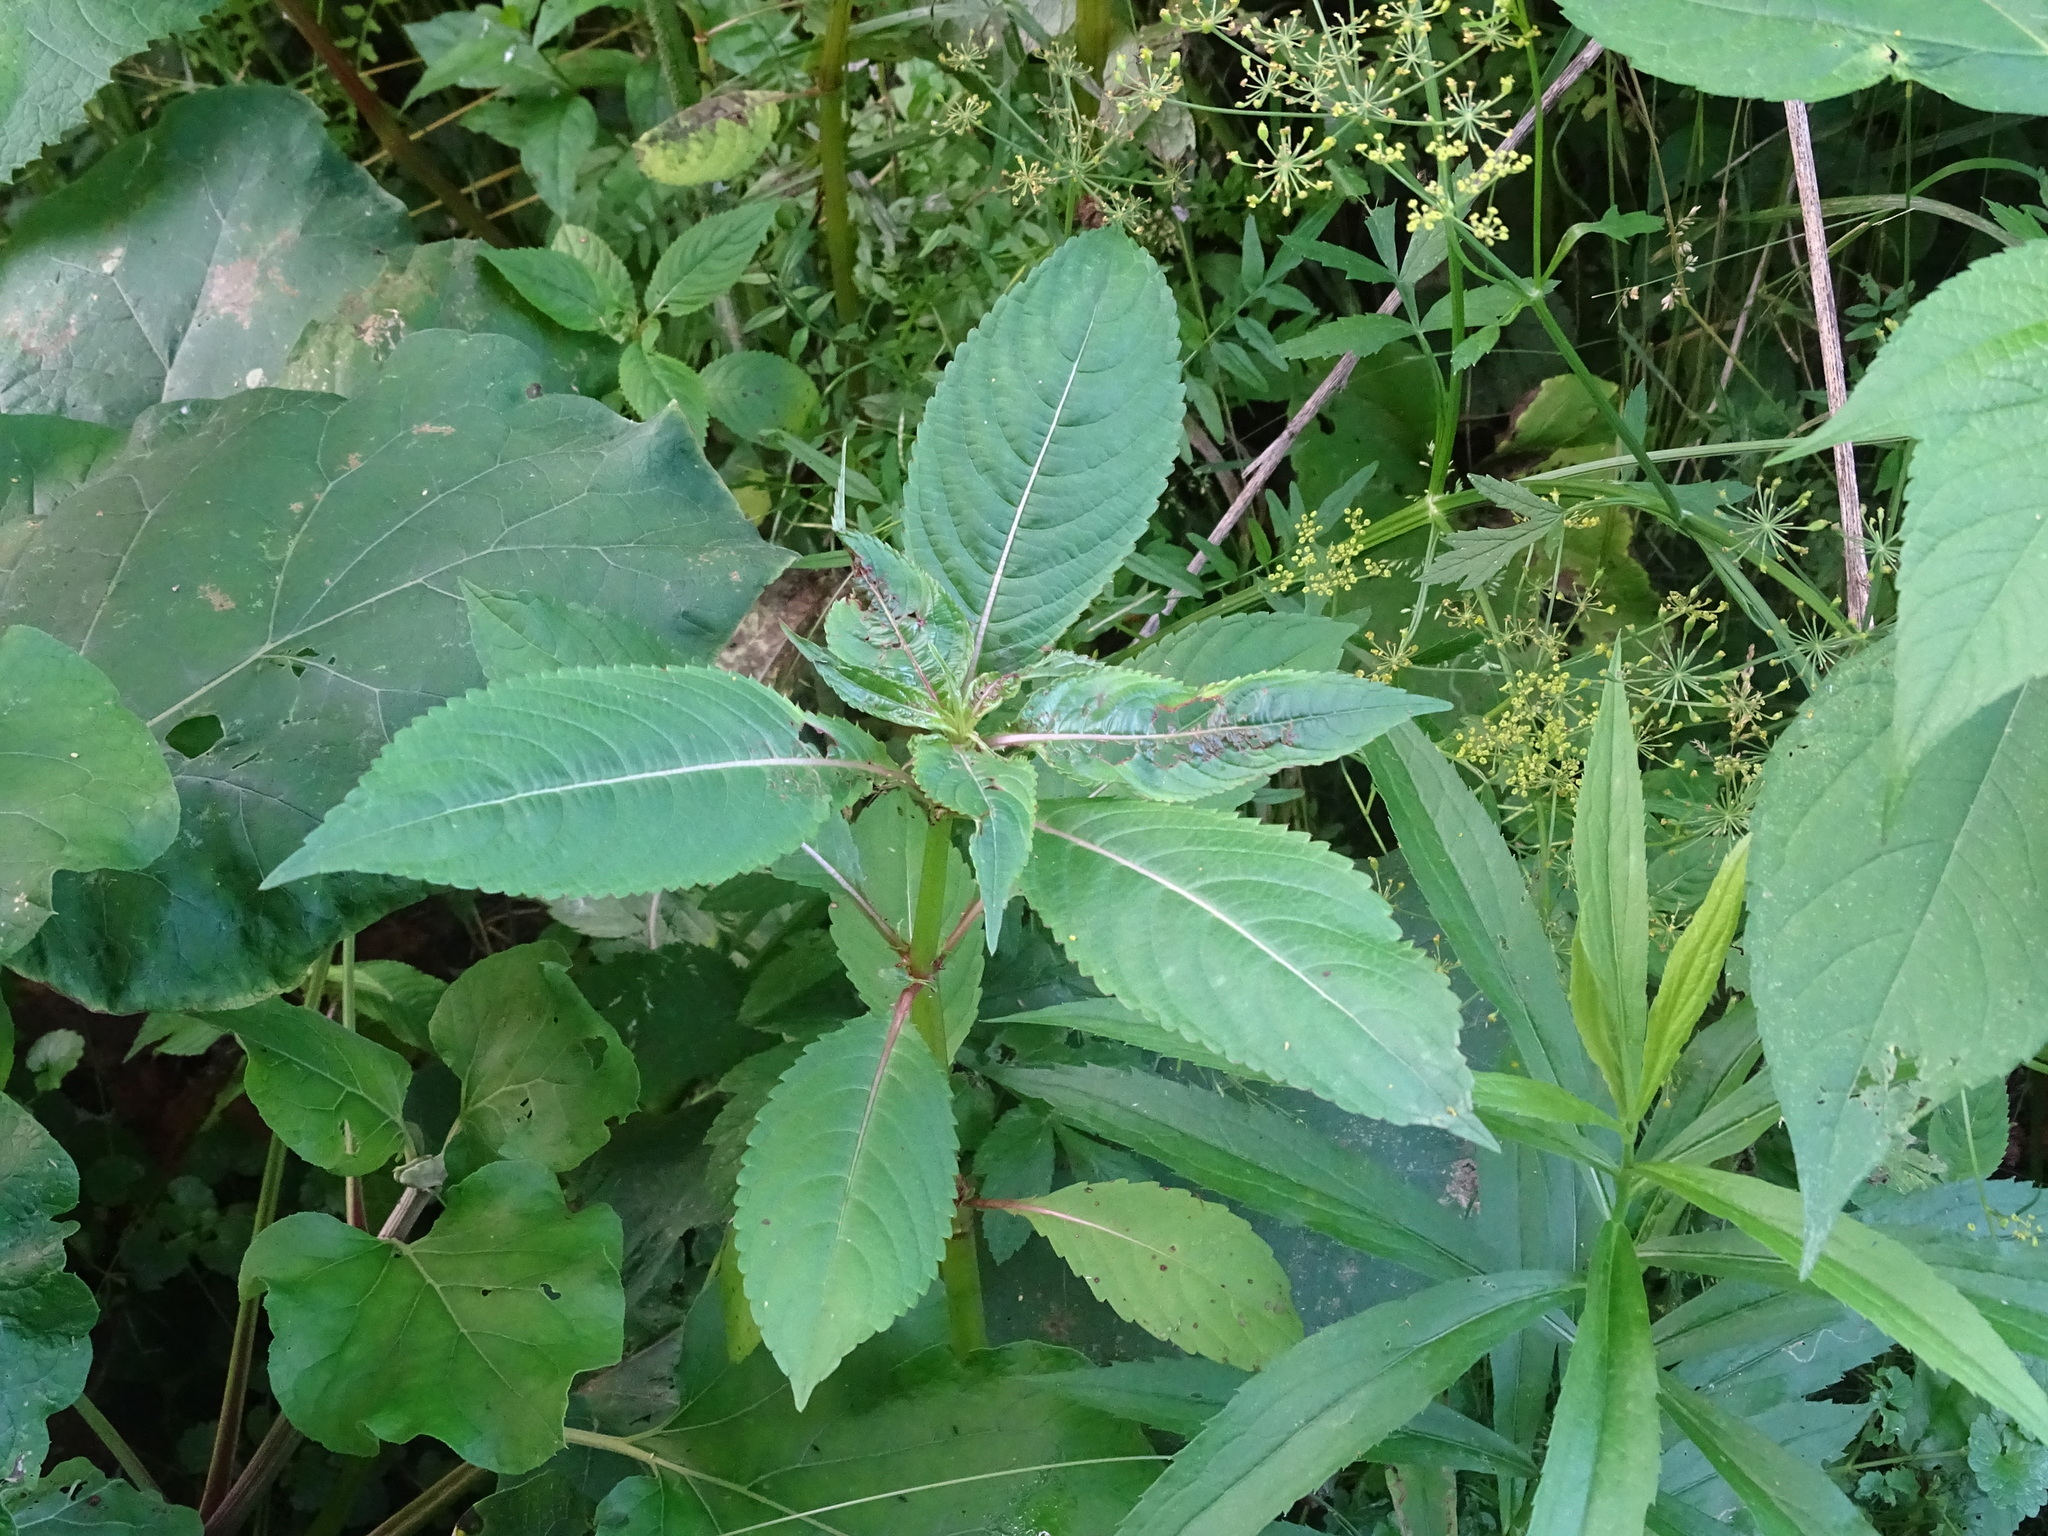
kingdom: Plantae
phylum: Tracheophyta
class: Magnoliopsida
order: Ericales
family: Balsaminaceae
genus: Impatiens
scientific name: Impatiens glandulifera
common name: Himalayan balsam
